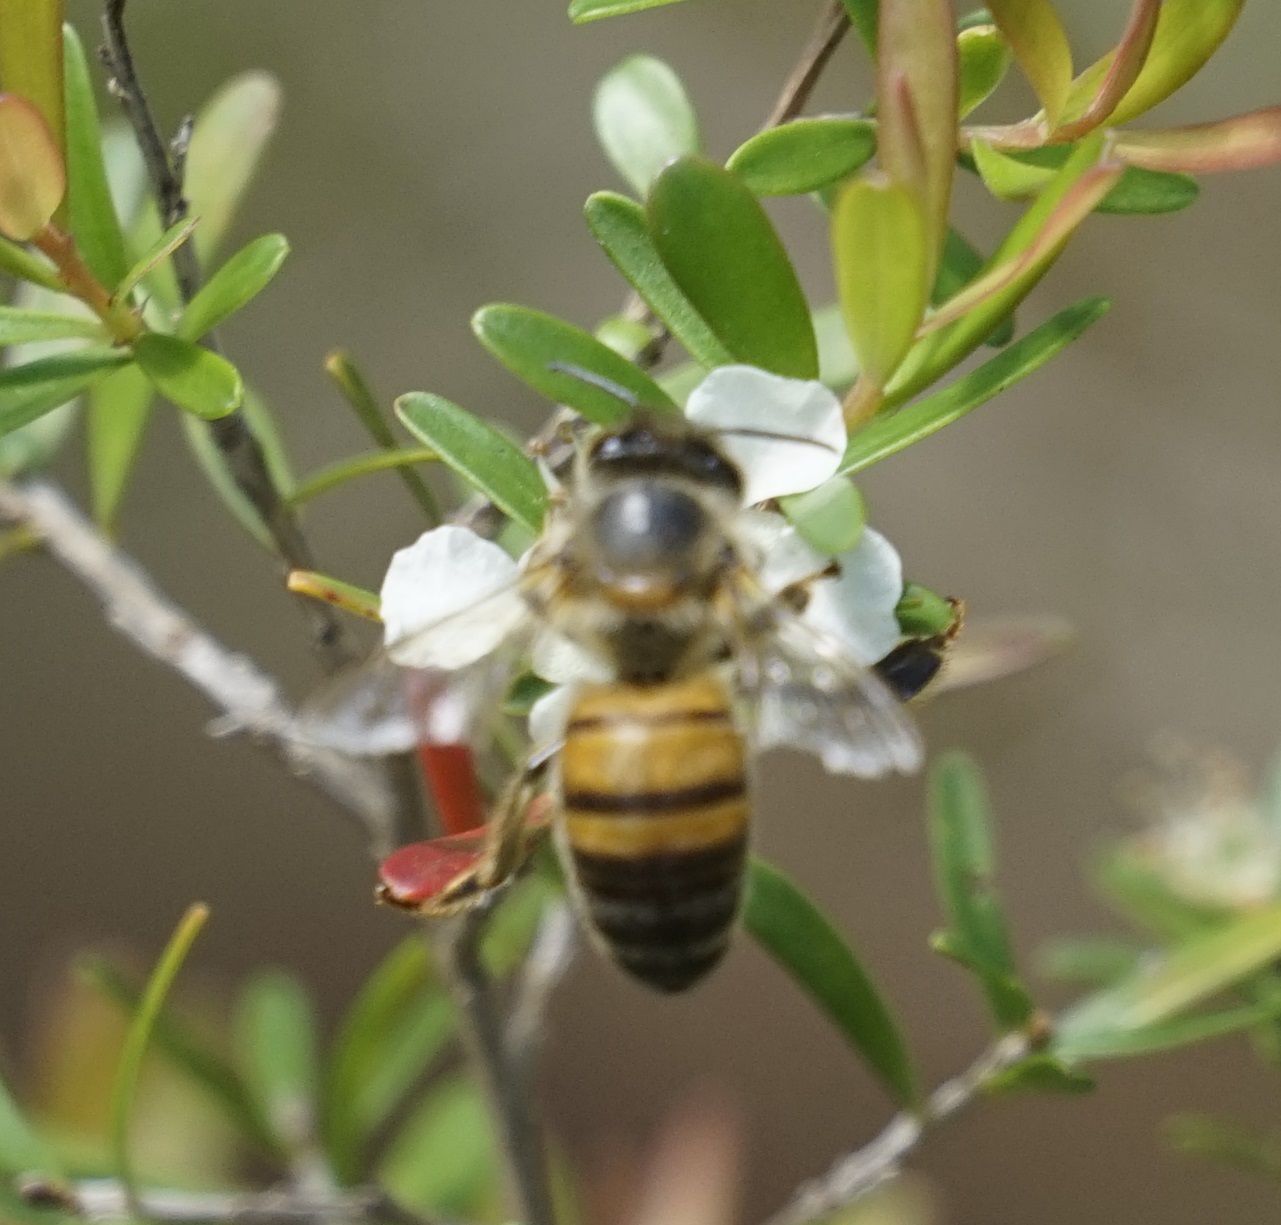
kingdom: Animalia
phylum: Arthropoda
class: Insecta
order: Hymenoptera
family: Apidae
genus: Apis
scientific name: Apis mellifera
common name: Honey bee
